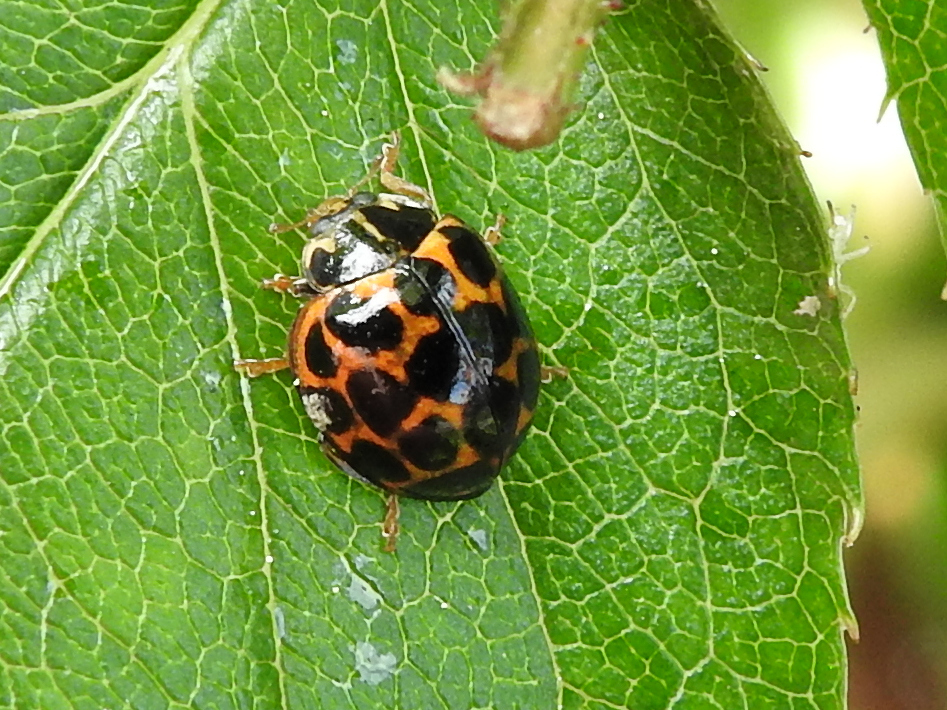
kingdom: Animalia
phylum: Arthropoda
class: Insecta
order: Coleoptera
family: Coccinellidae
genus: Harmonia
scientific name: Harmonia conformis
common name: Common spotted ladybird beetle
